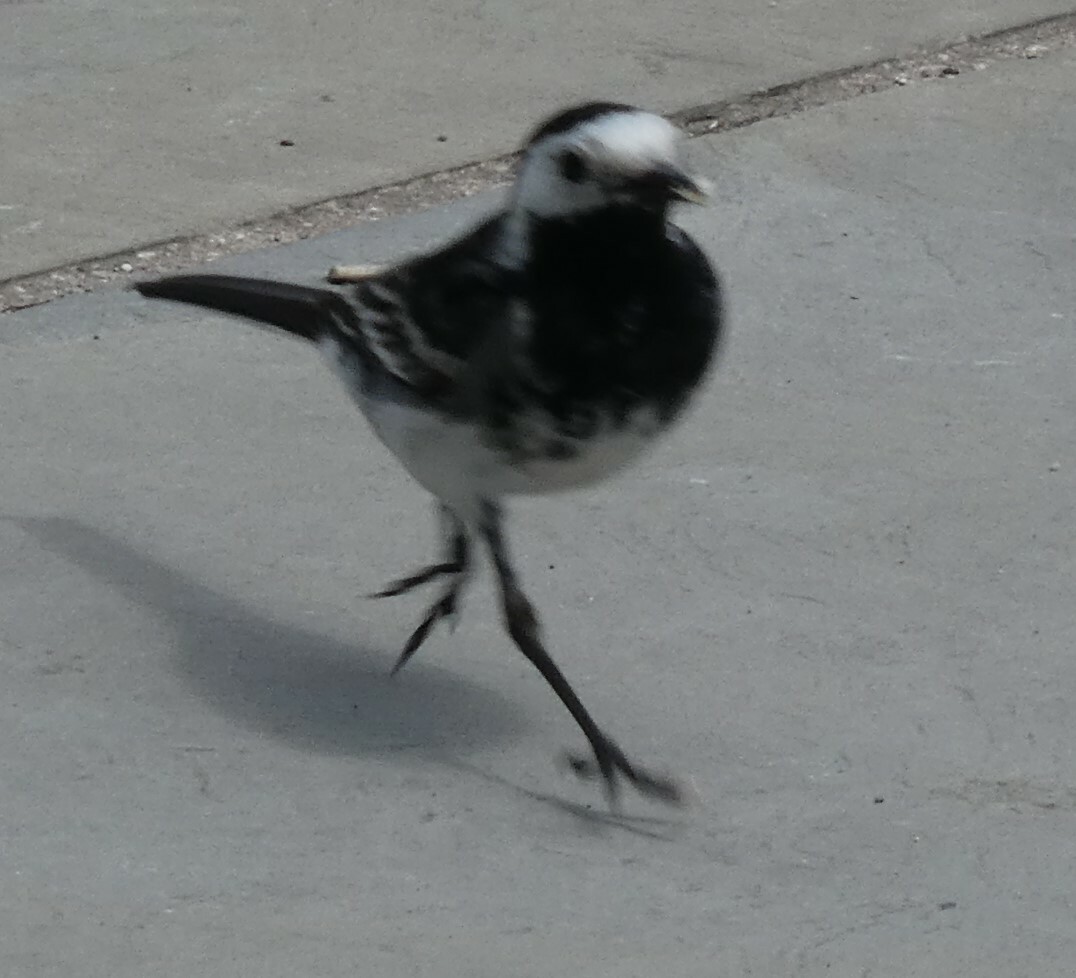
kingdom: Animalia
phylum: Chordata
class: Aves
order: Passeriformes
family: Motacillidae
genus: Motacilla
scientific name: Motacilla alba
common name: White wagtail
